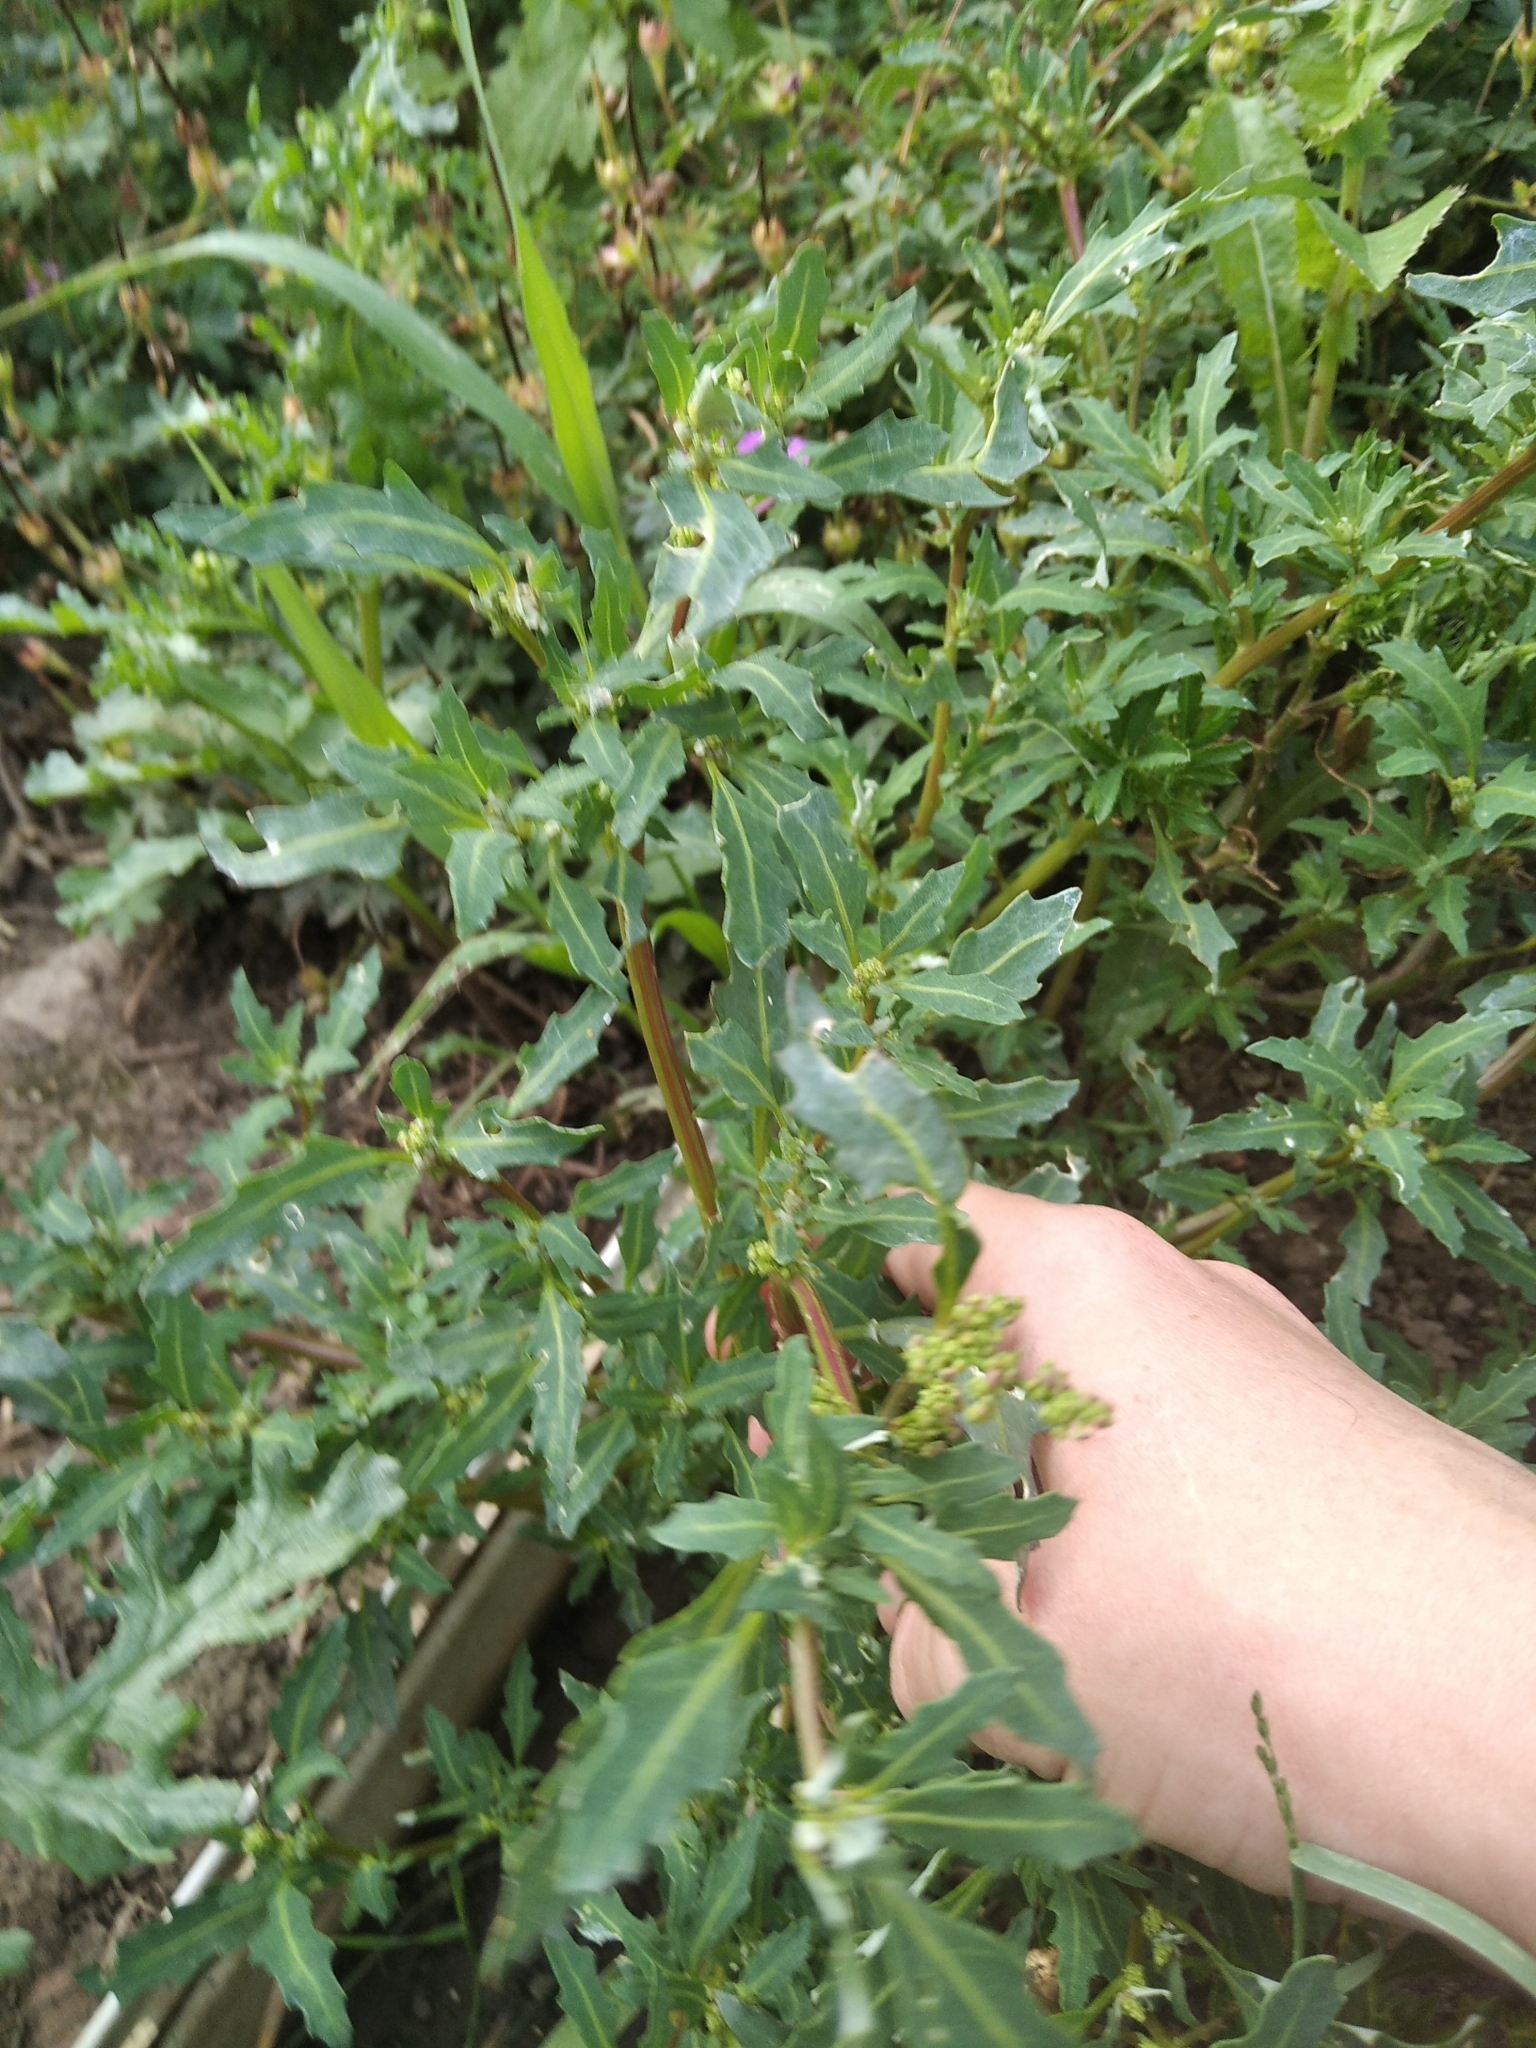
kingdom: Plantae
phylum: Tracheophyta
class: Magnoliopsida
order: Caryophyllales
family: Amaranthaceae
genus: Oxybasis
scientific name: Oxybasis glauca
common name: Glaucous goosefoot
